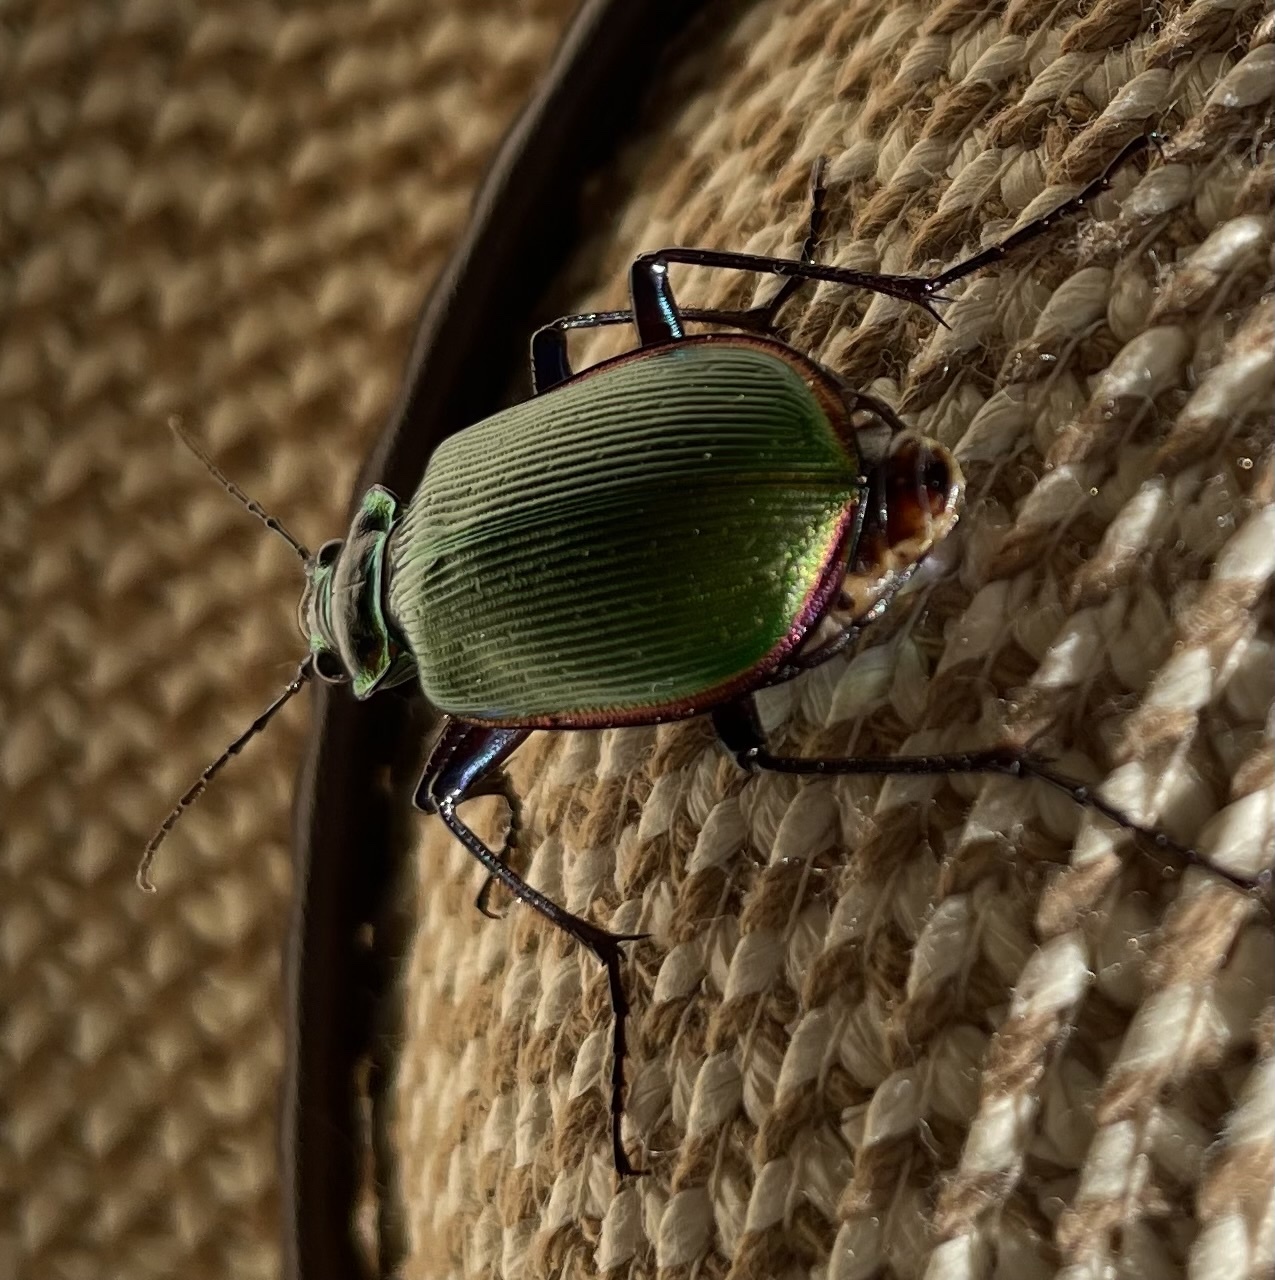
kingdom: Animalia
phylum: Arthropoda
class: Insecta
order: Coleoptera
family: Carabidae
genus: Calosoma
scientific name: Calosoma scrutator
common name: Fiery searcher beetle
